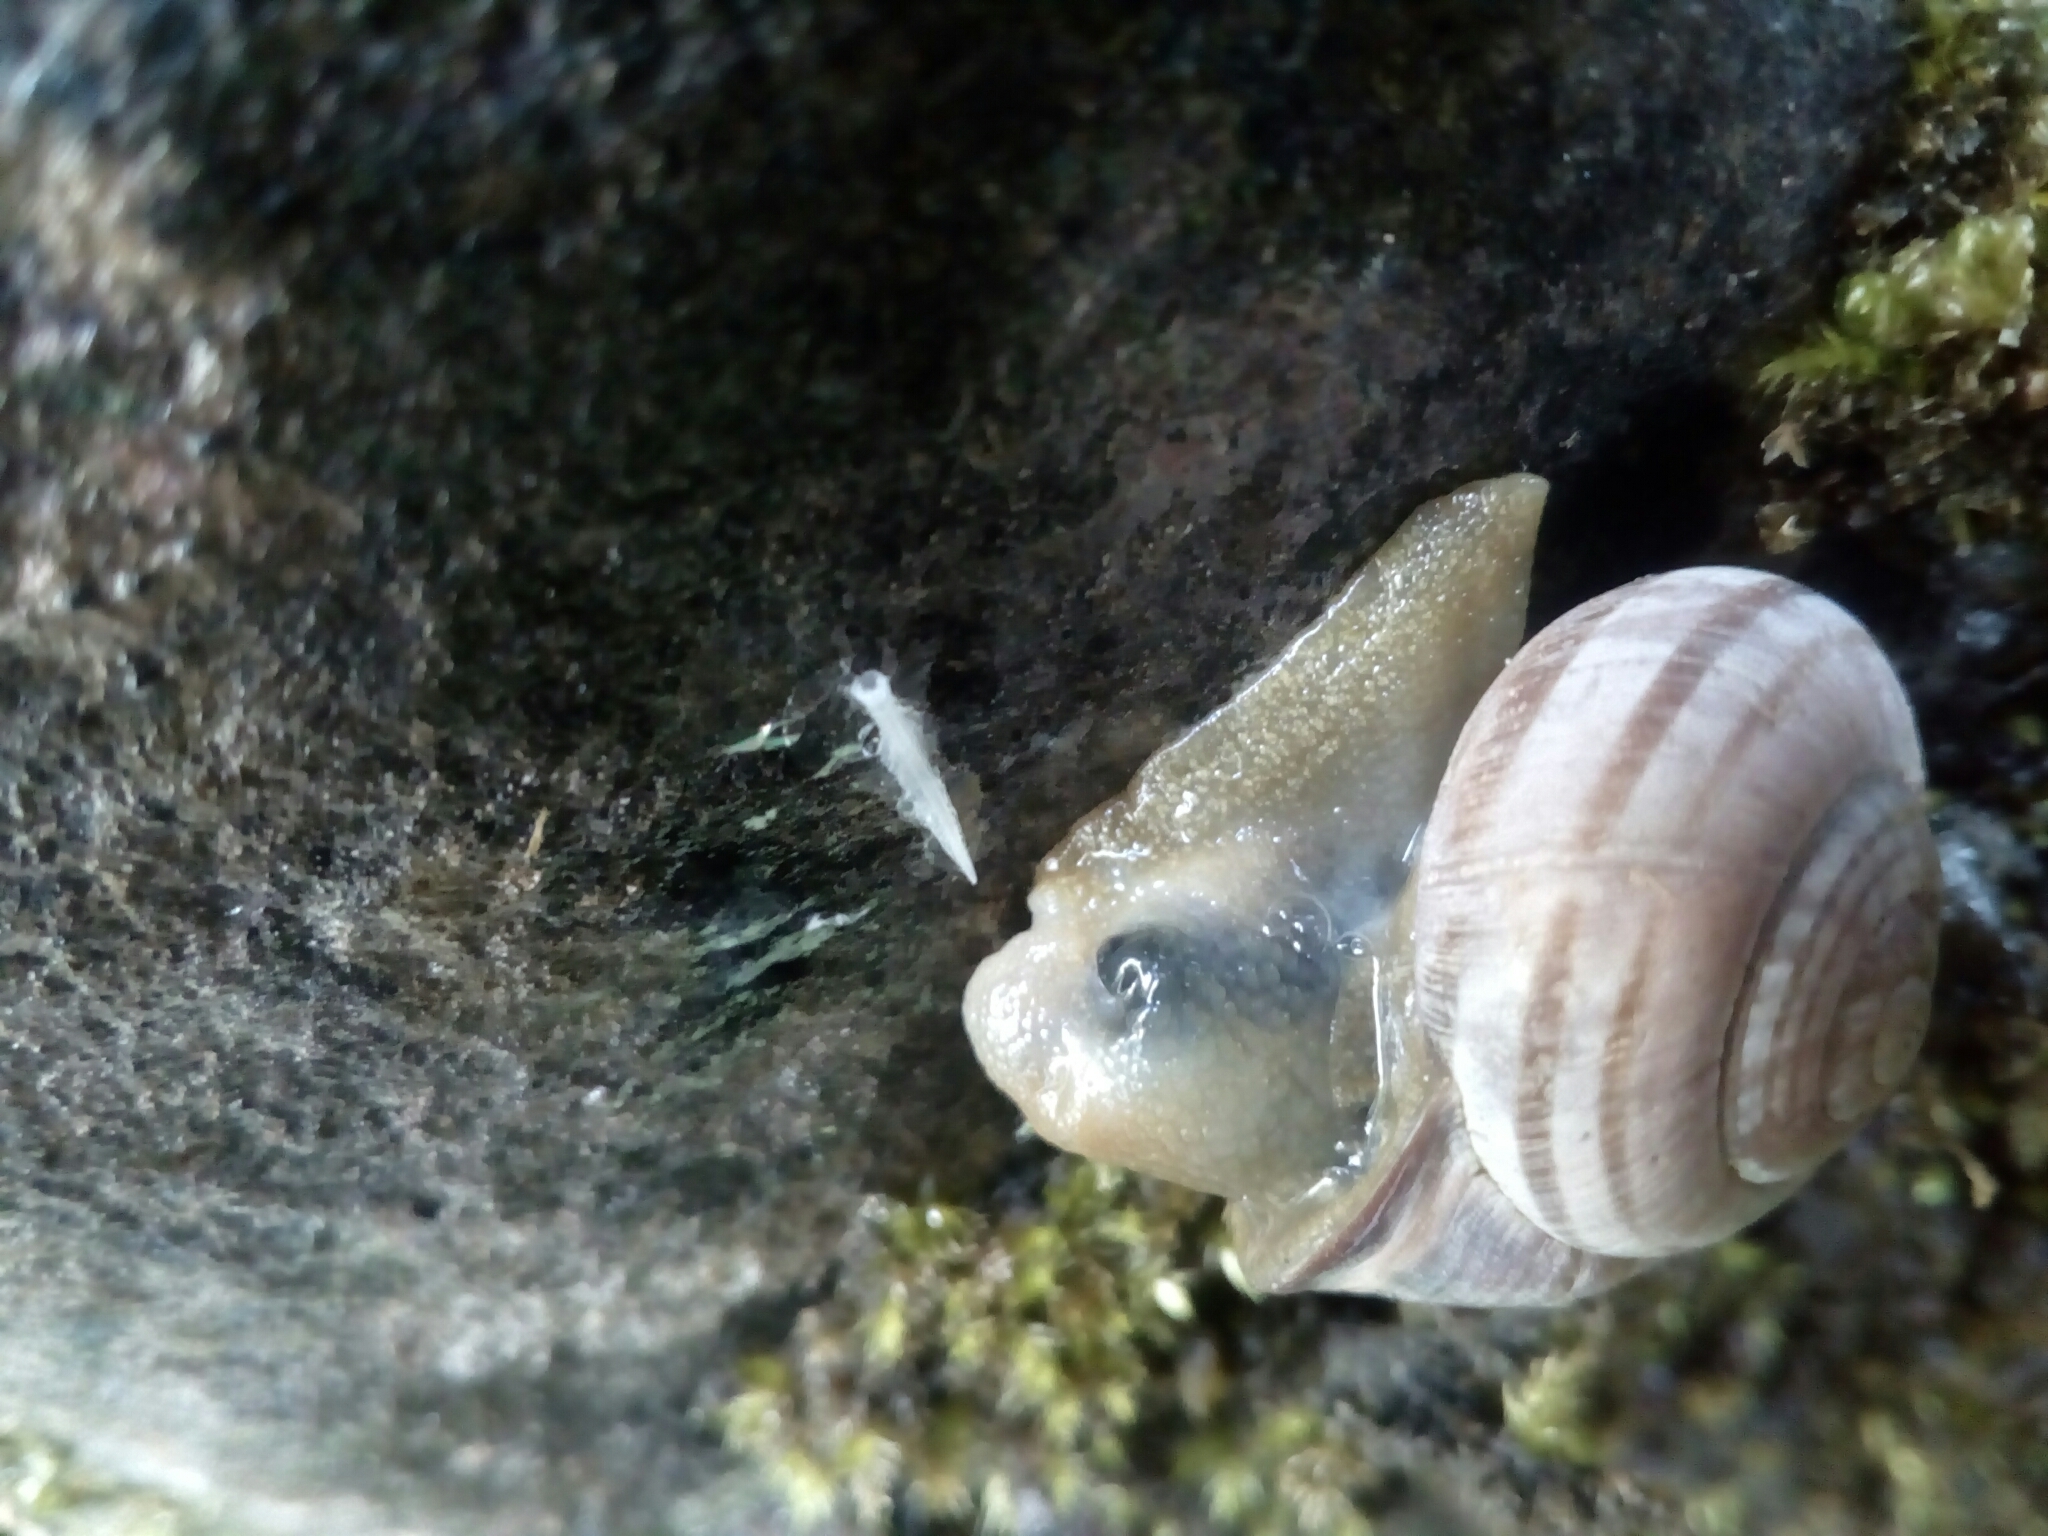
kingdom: Animalia
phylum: Mollusca
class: Gastropoda
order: Stylommatophora
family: Helicidae
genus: Cepaea
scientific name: Cepaea nemoralis
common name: Grovesnail
